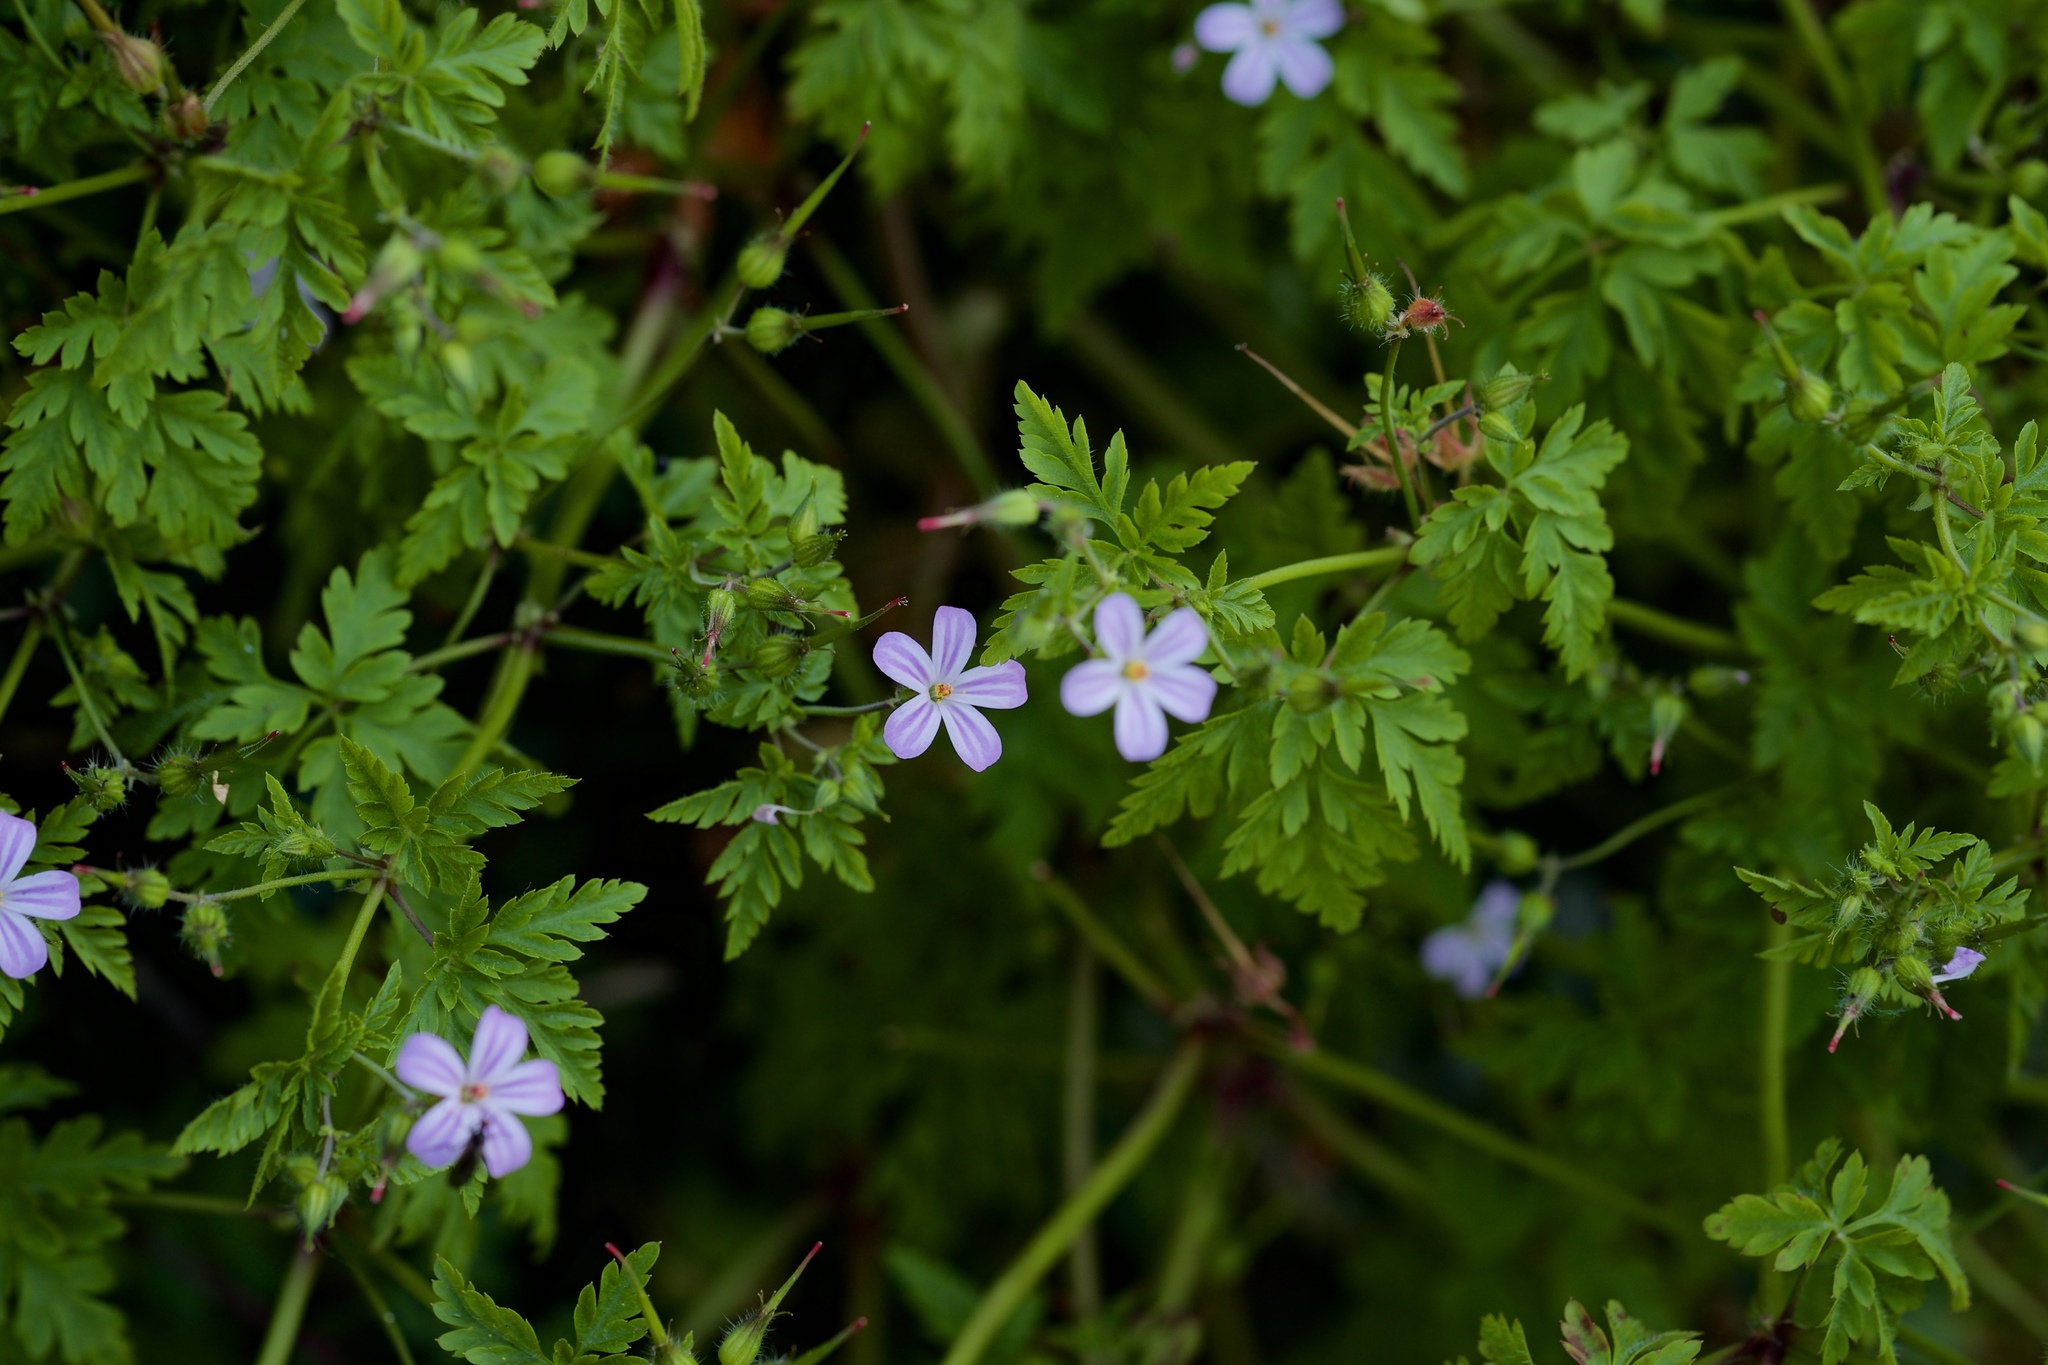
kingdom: Plantae
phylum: Tracheophyta
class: Magnoliopsida
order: Geraniales
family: Geraniaceae
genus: Geranium
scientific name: Geranium robertianum
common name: Herb-robert
